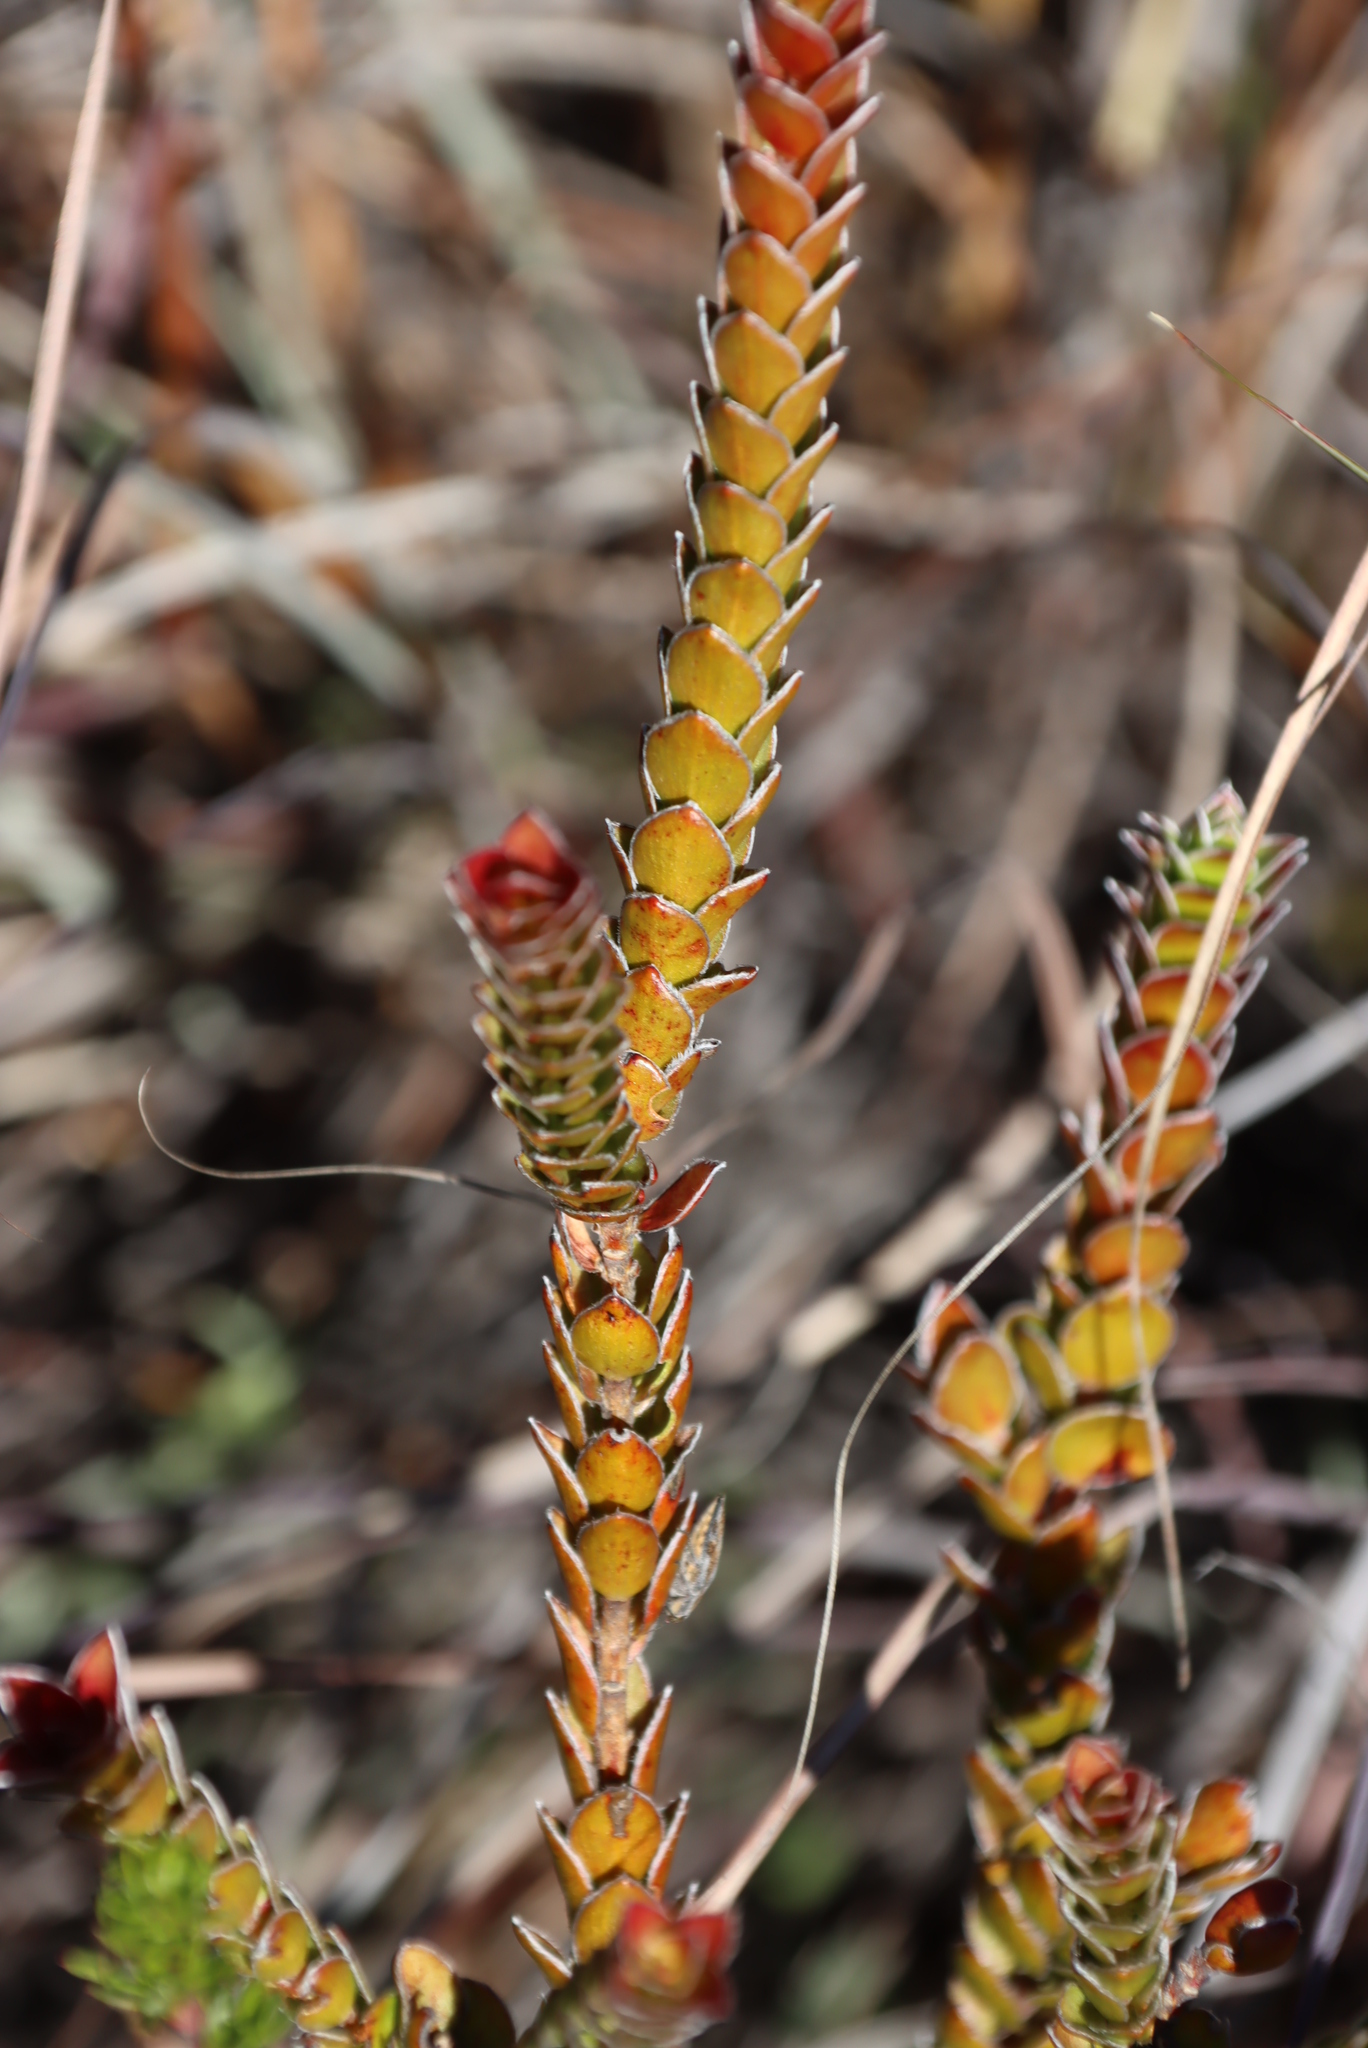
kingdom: Plantae
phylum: Tracheophyta
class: Magnoliopsida
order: Malvales
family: Thymelaeaceae
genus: Struthiola
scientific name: Struthiola argentea
